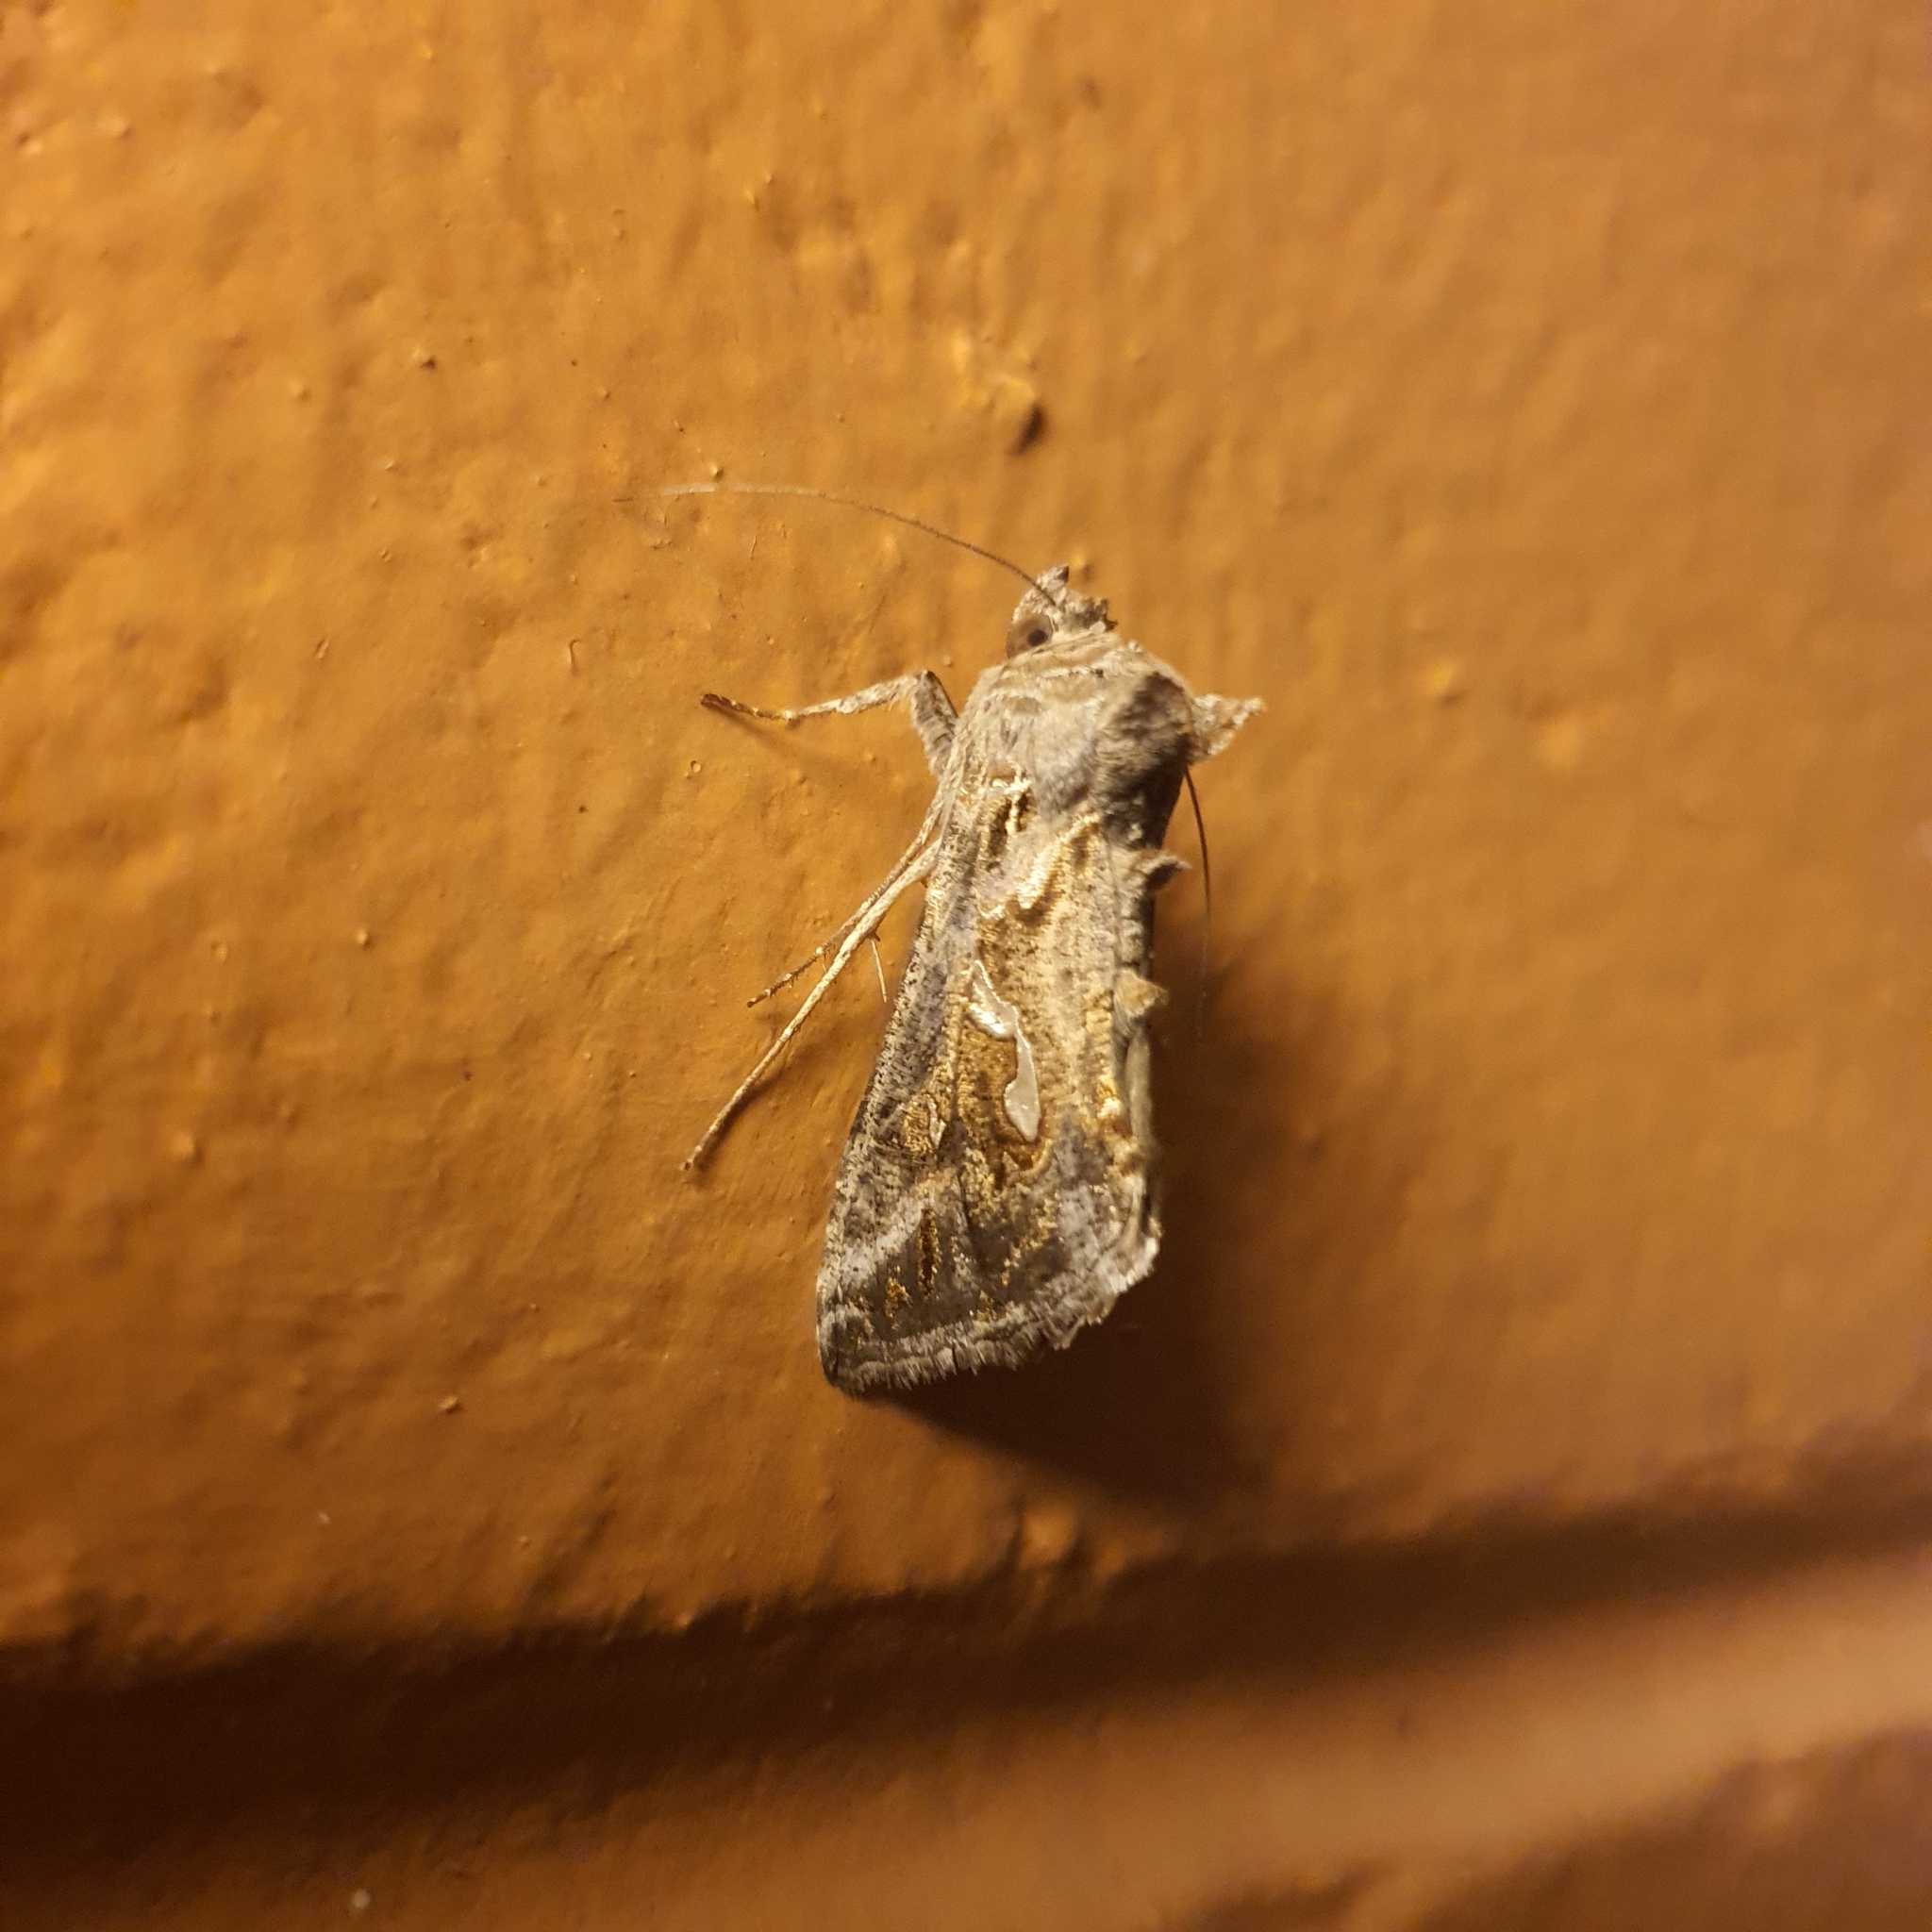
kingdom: Animalia
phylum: Arthropoda
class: Insecta
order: Lepidoptera
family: Noctuidae
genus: Chrysodeixis
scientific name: Chrysodeixis argentifera
